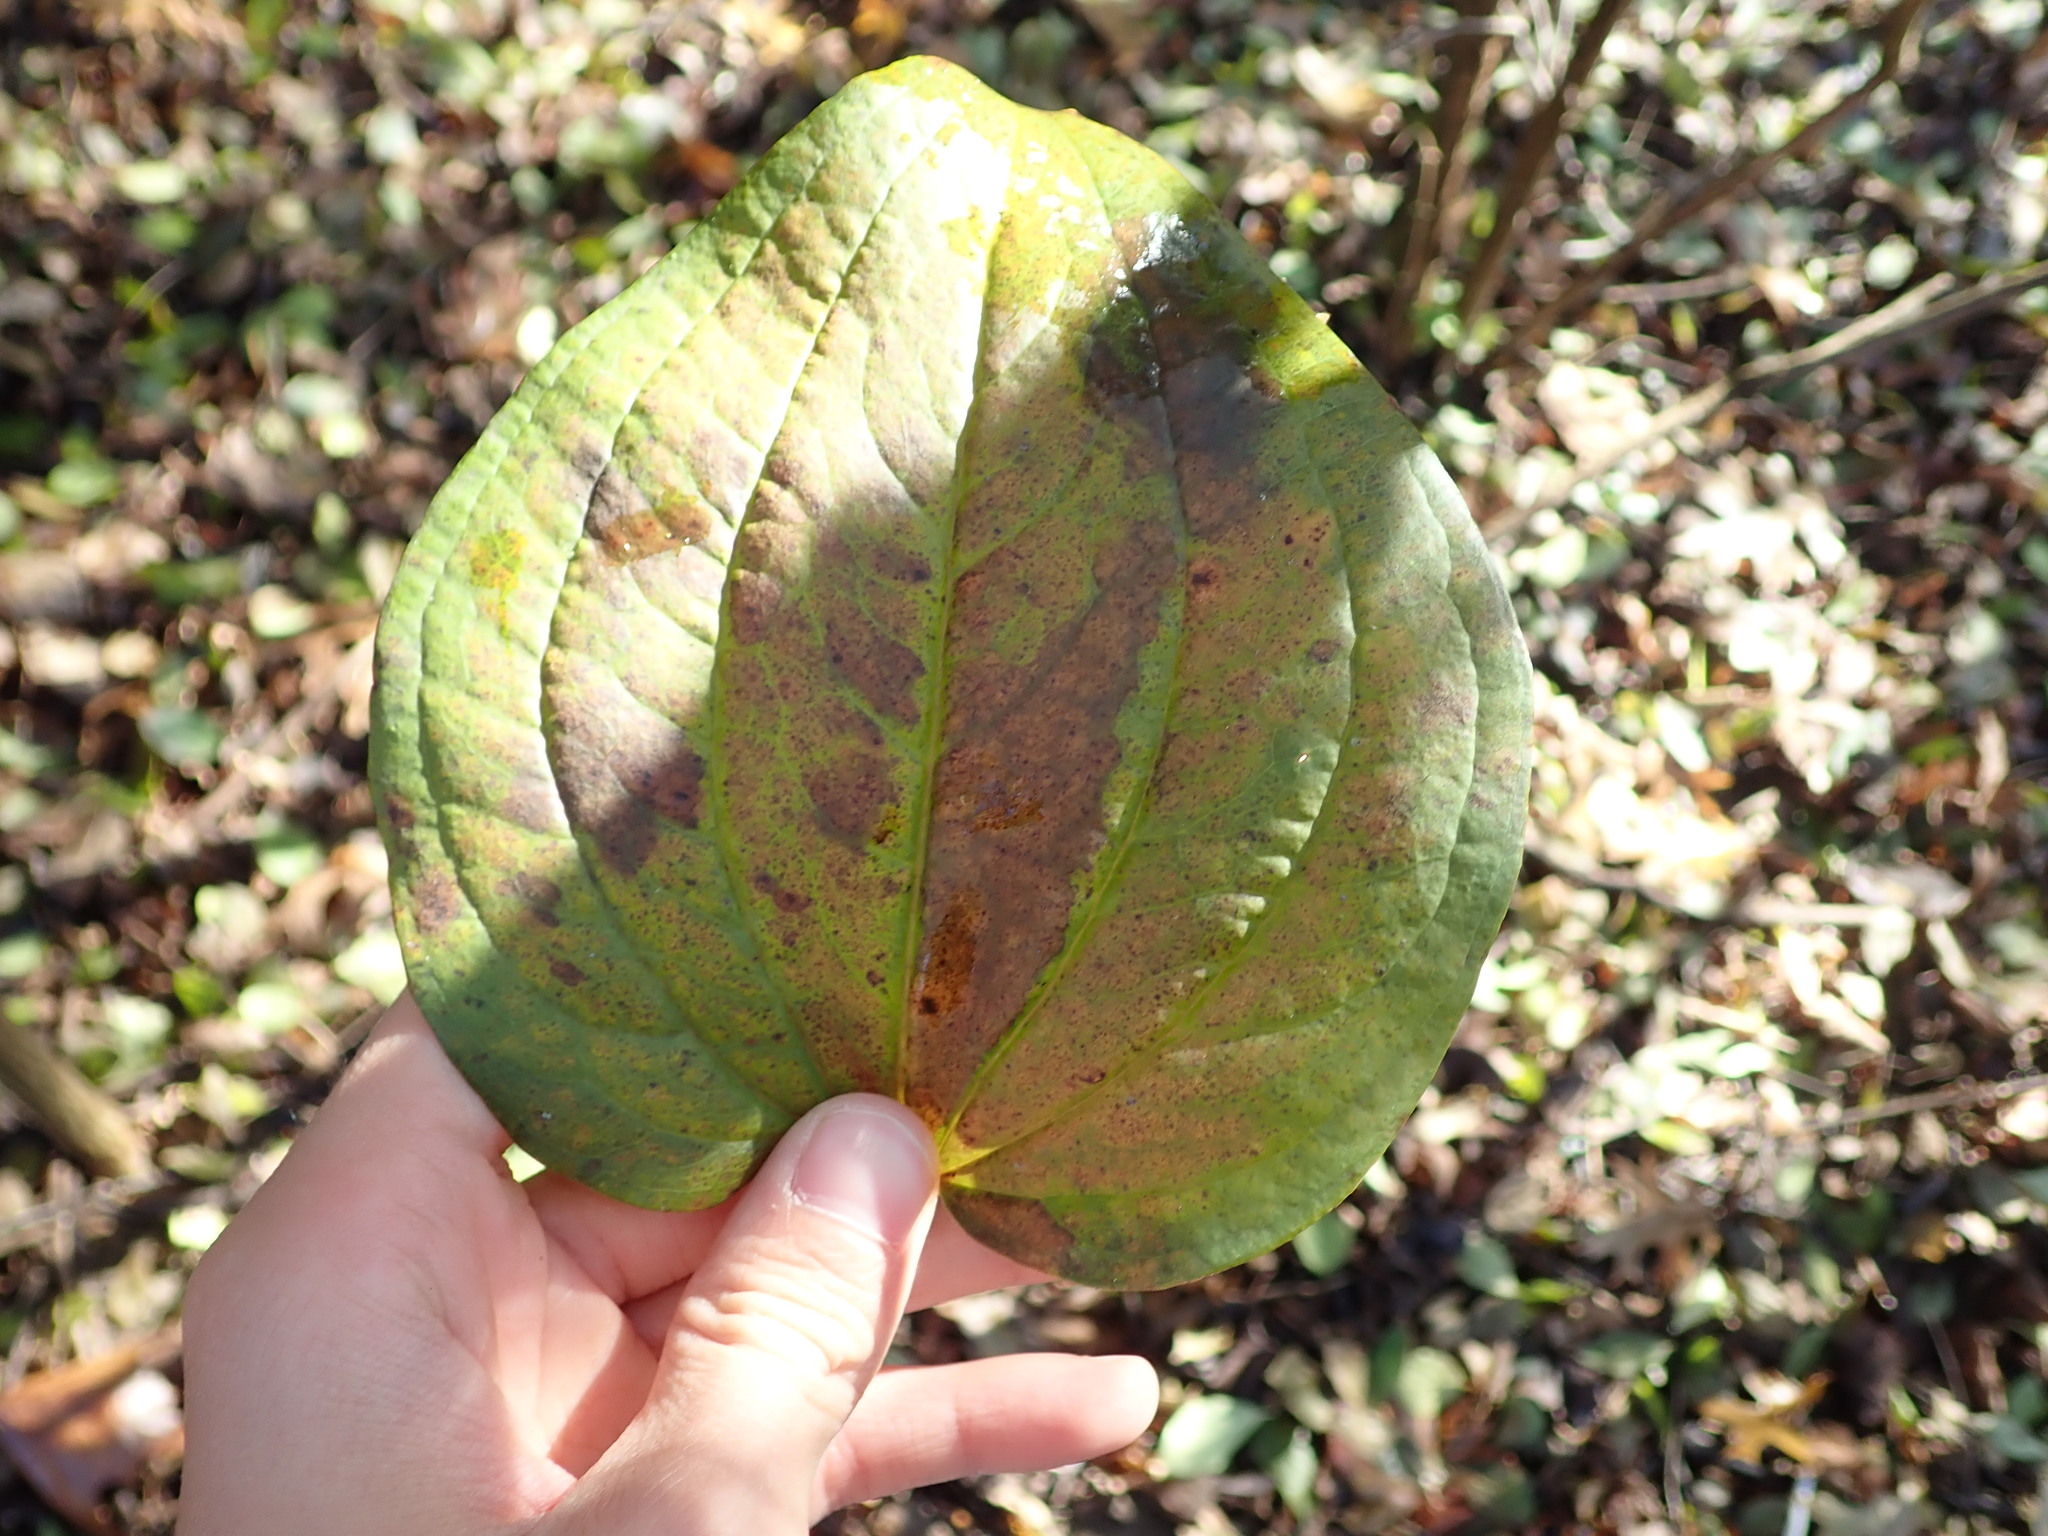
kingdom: Plantae
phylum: Tracheophyta
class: Liliopsida
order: Liliales
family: Smilacaceae
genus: Smilax
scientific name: Smilax tamnoides
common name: Hellfetter
